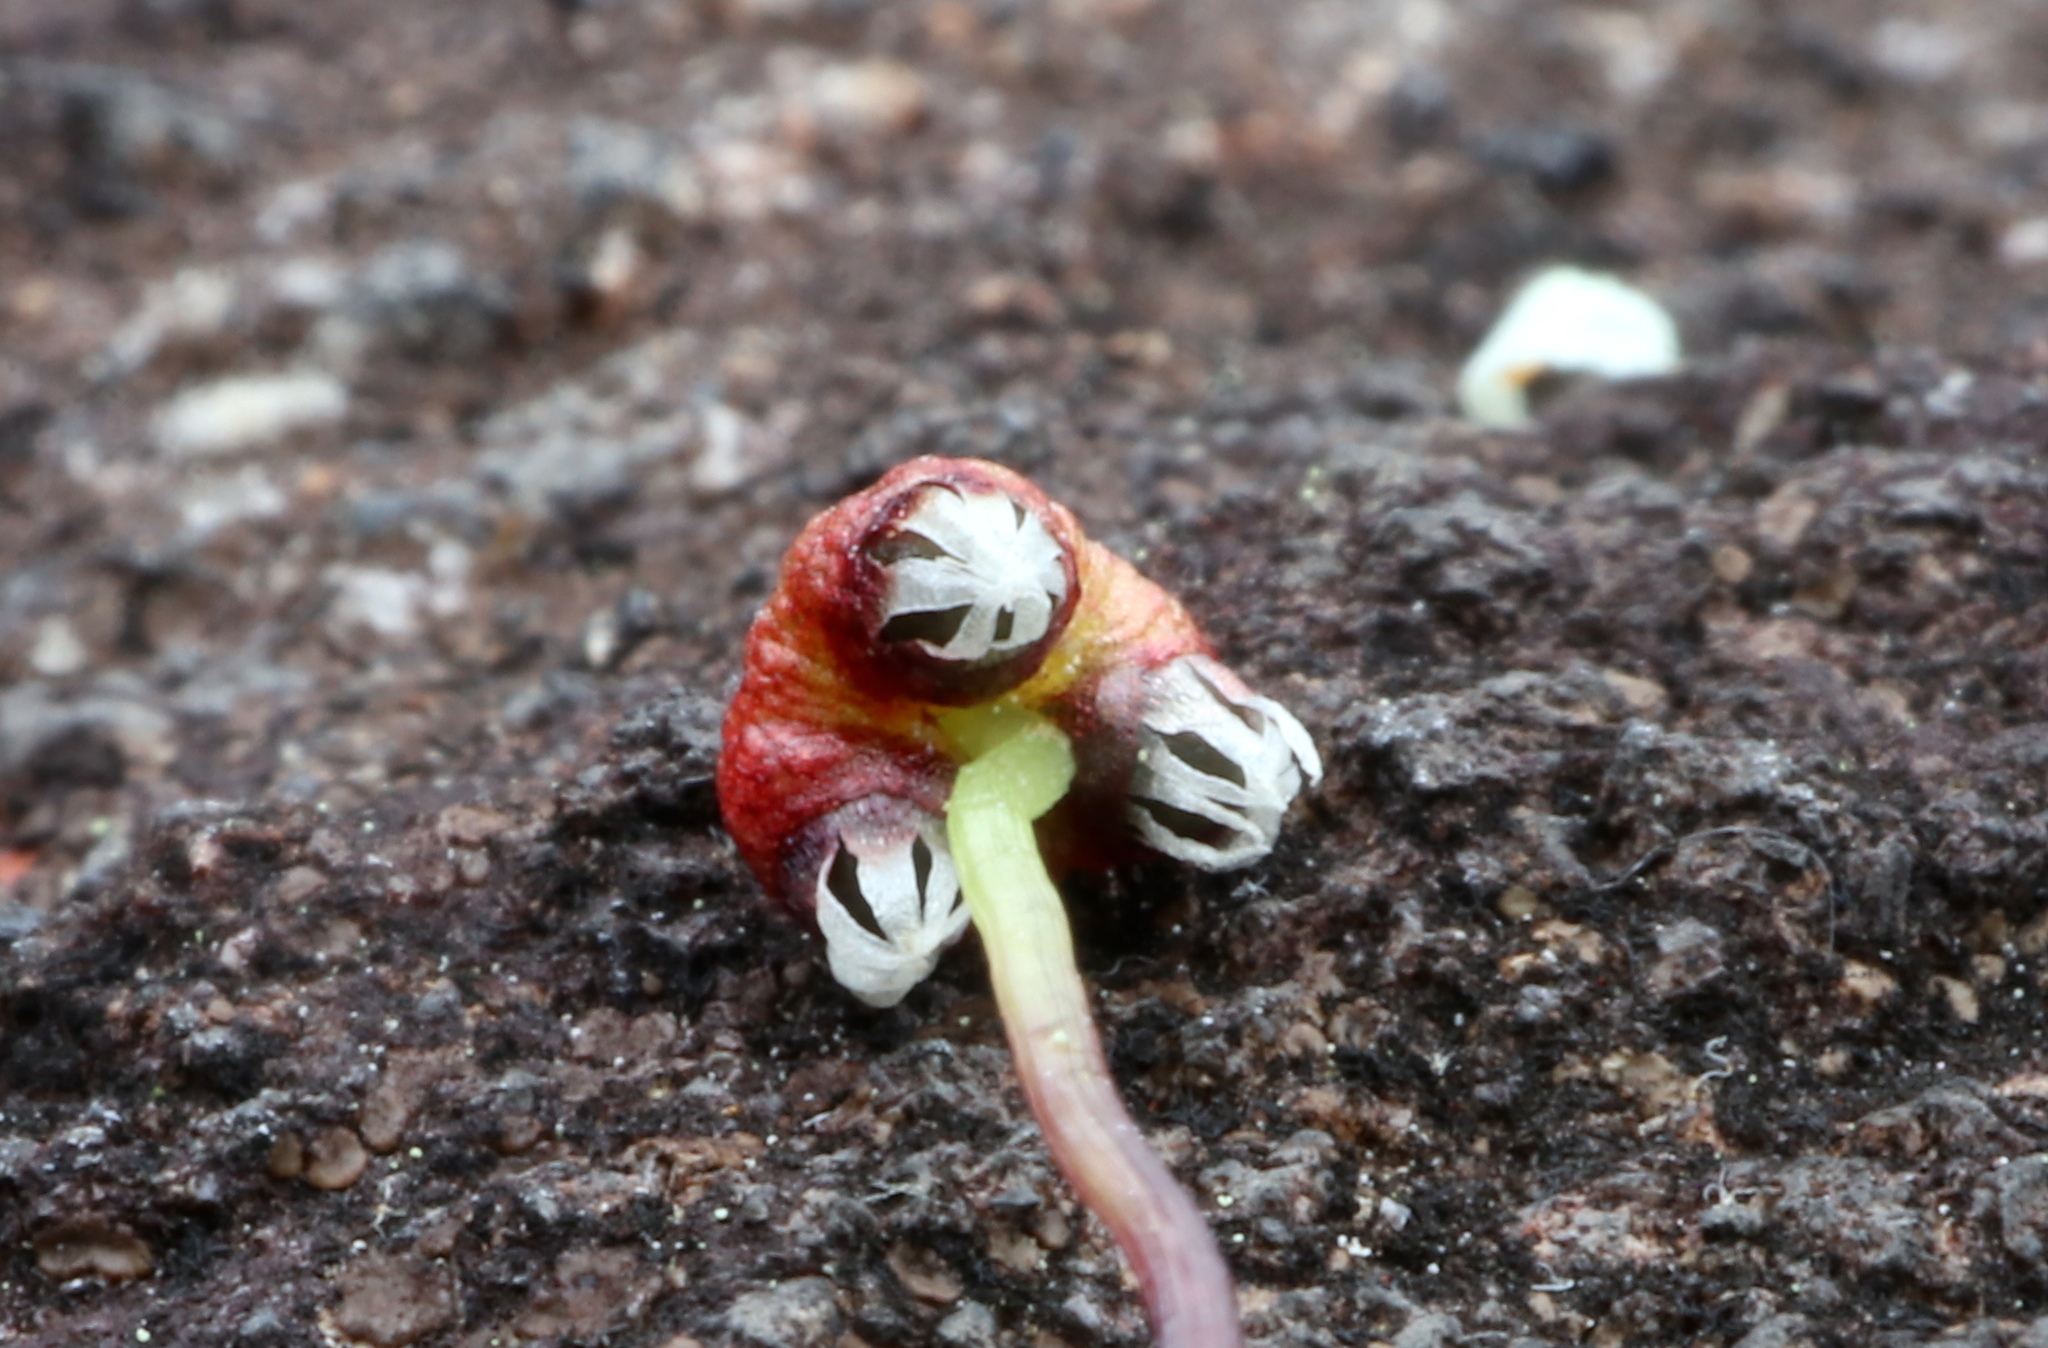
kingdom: Plantae
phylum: Marchantiophyta
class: Marchantiopsida
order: Marchantiales
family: Aytoniaceae
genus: Asterella
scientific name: Asterella tenella
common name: Delicate starwort
